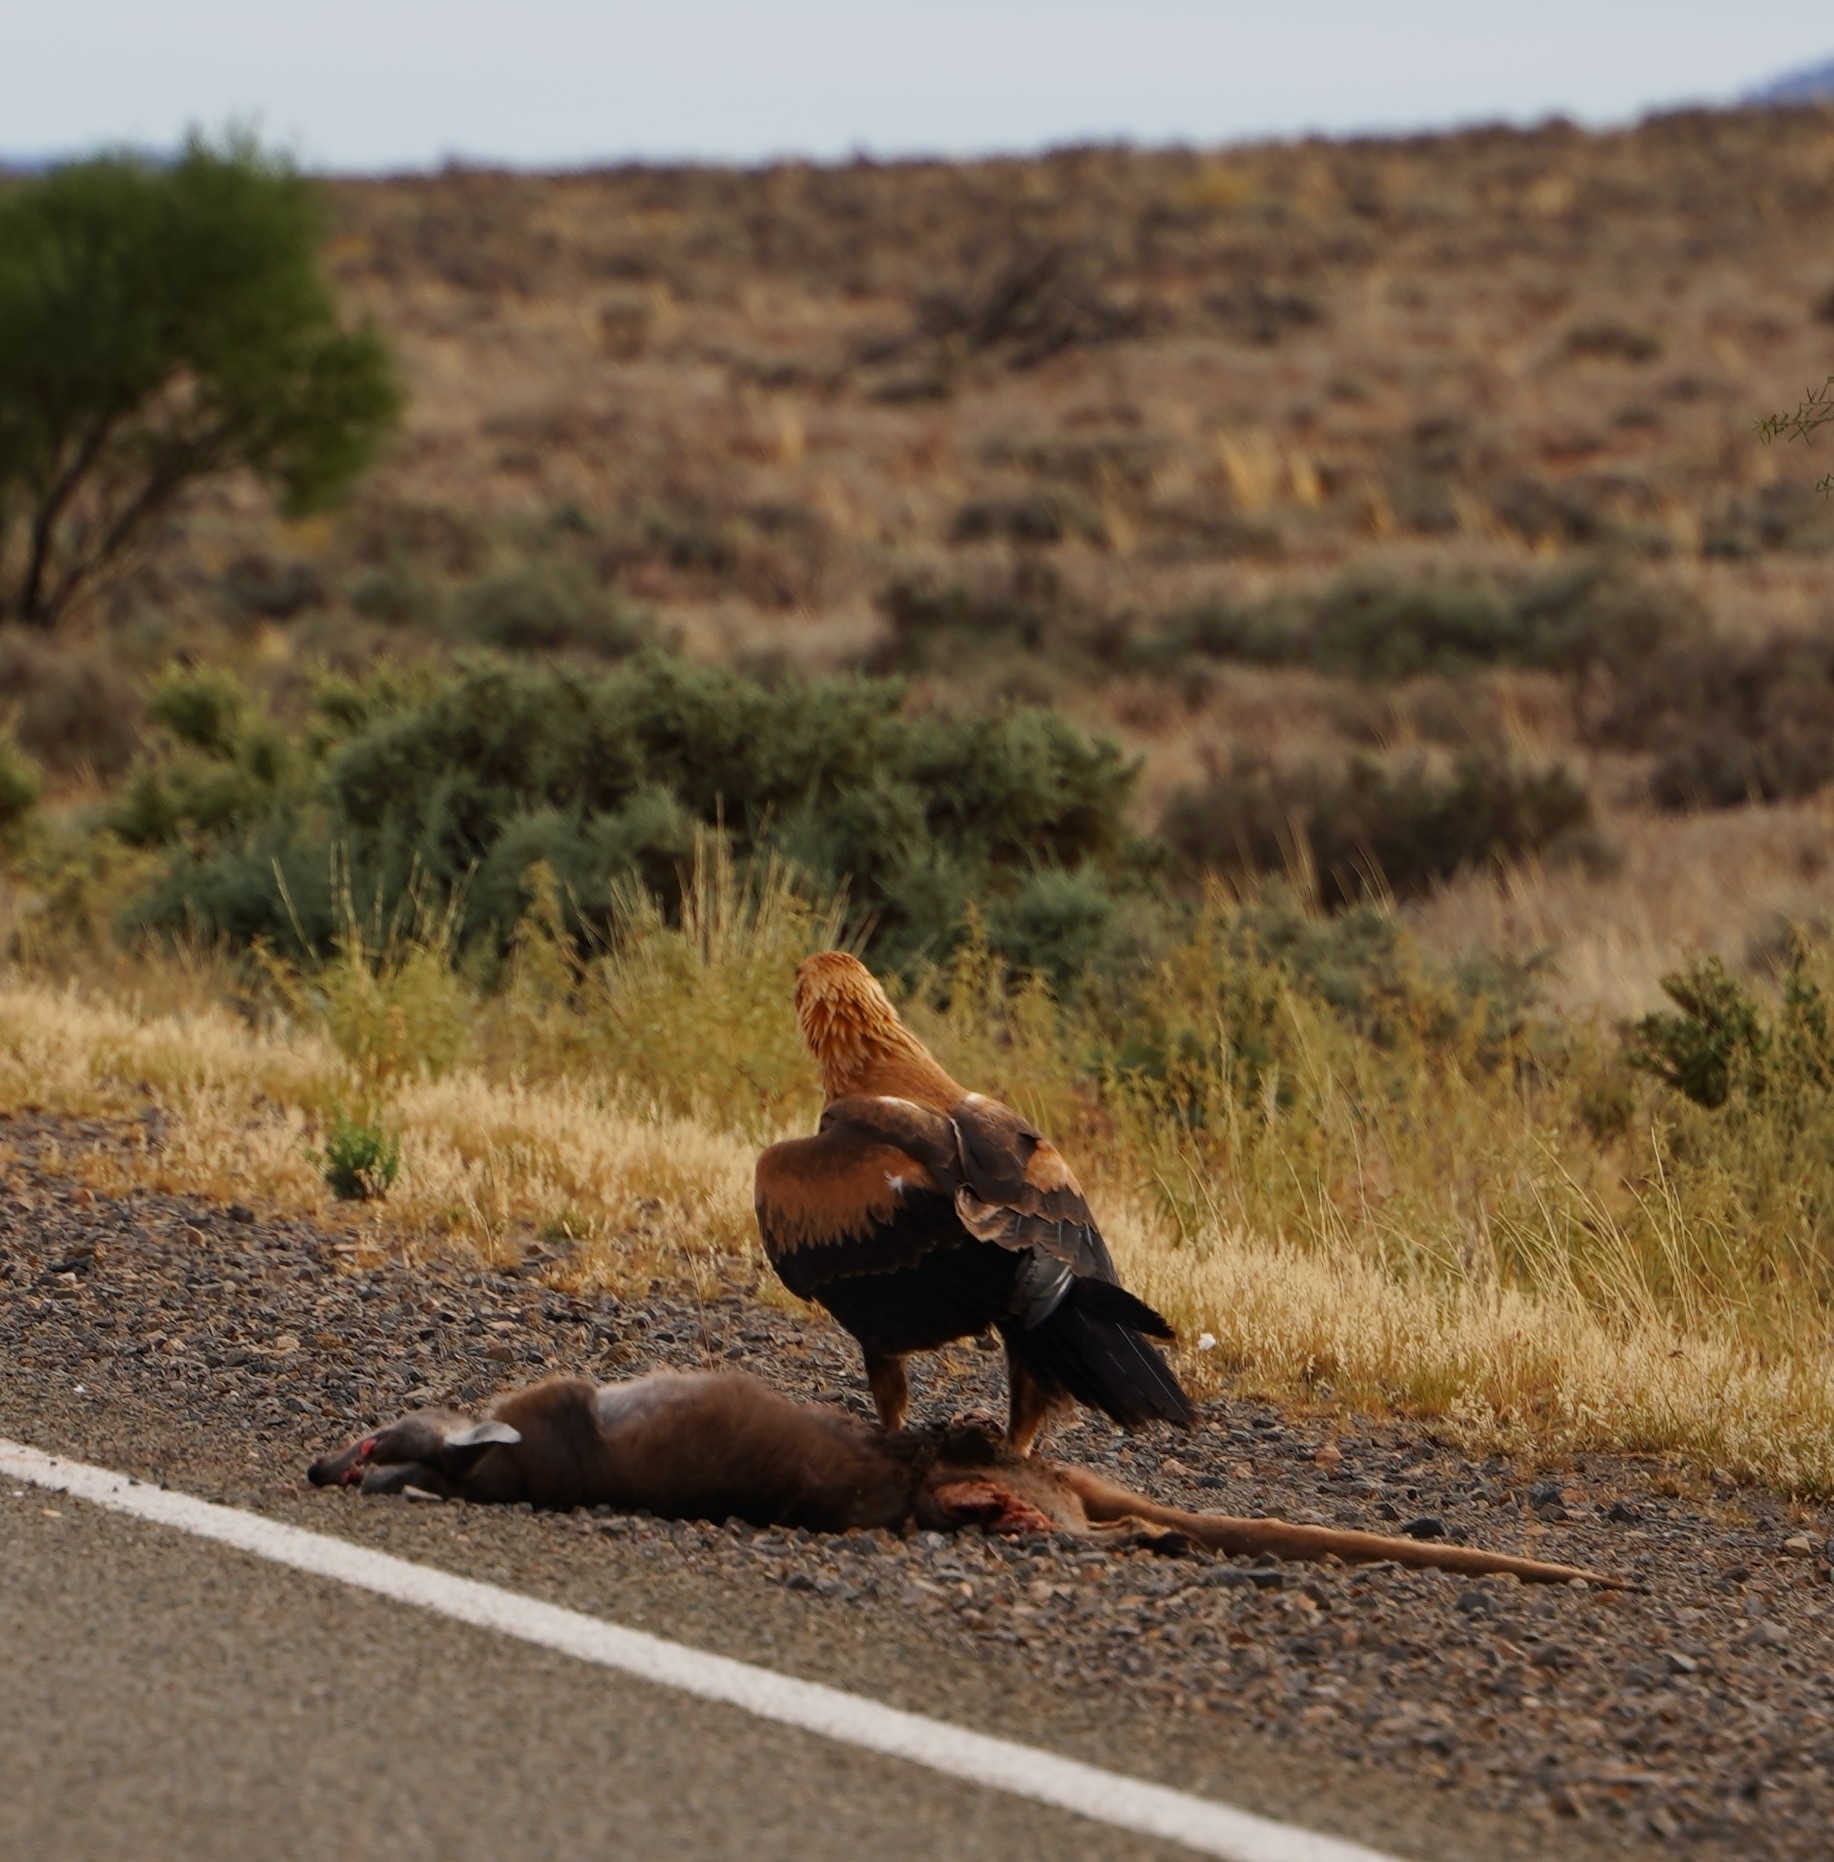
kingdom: Animalia
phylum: Chordata
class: Aves
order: Accipitriformes
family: Accipitridae
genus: Aquila
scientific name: Aquila audax
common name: Wedge-tailed eagle
